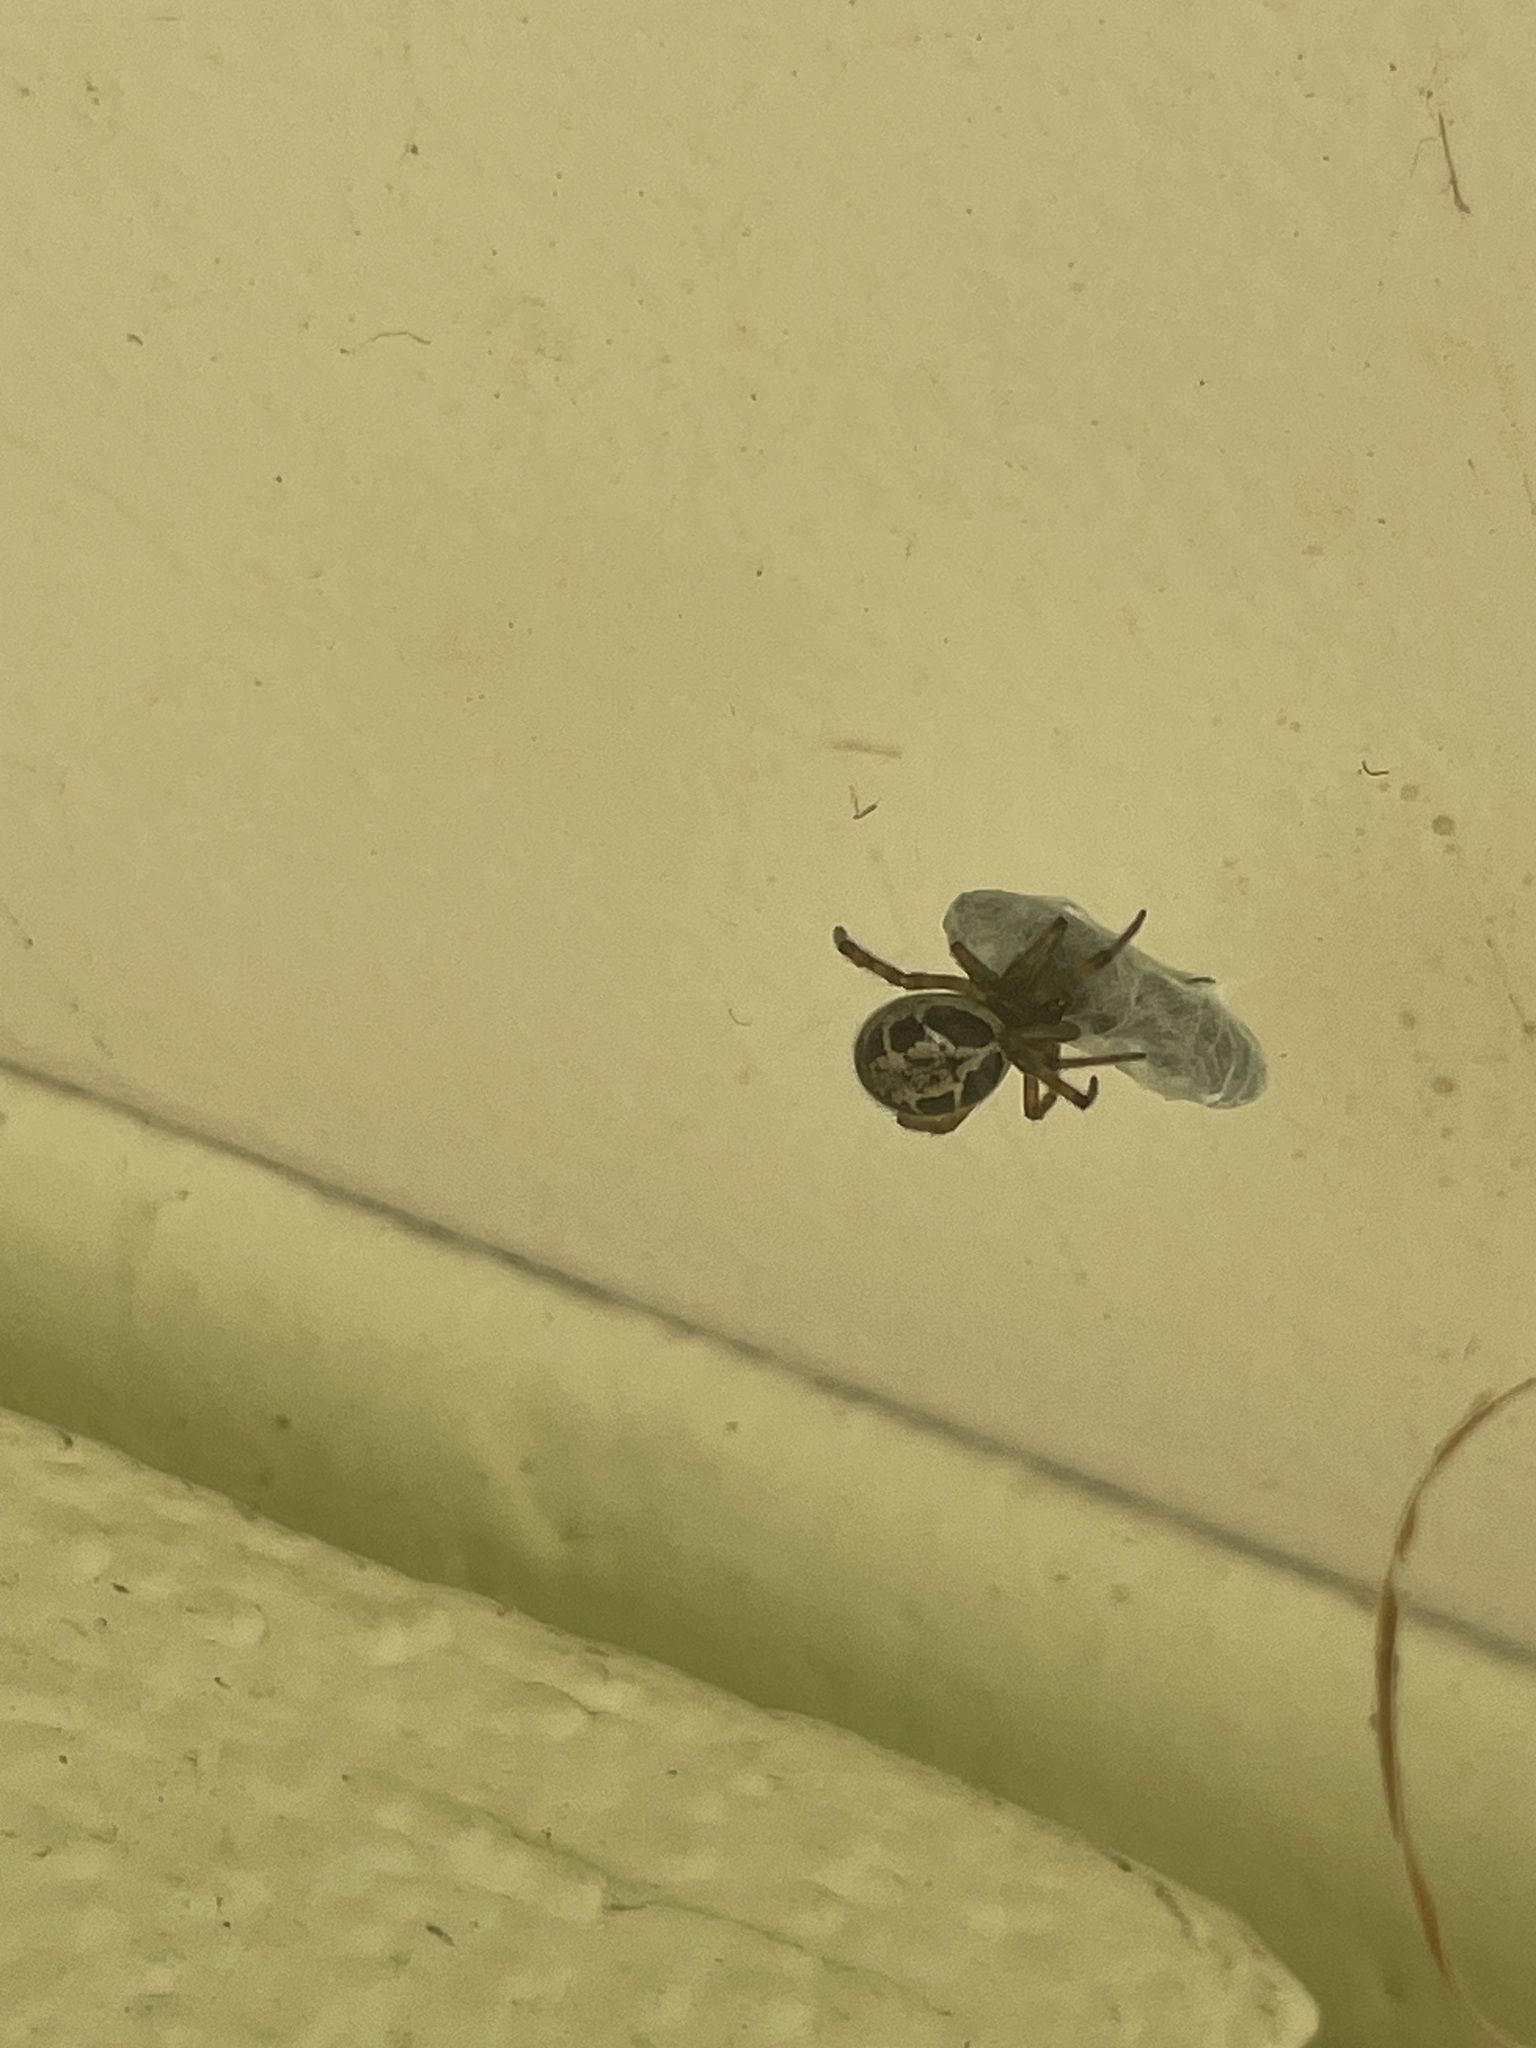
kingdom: Animalia
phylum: Arthropoda
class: Arachnida
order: Araneae
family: Theridiidae
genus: Steatoda
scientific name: Steatoda nobilis
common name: Cobweb weaver
